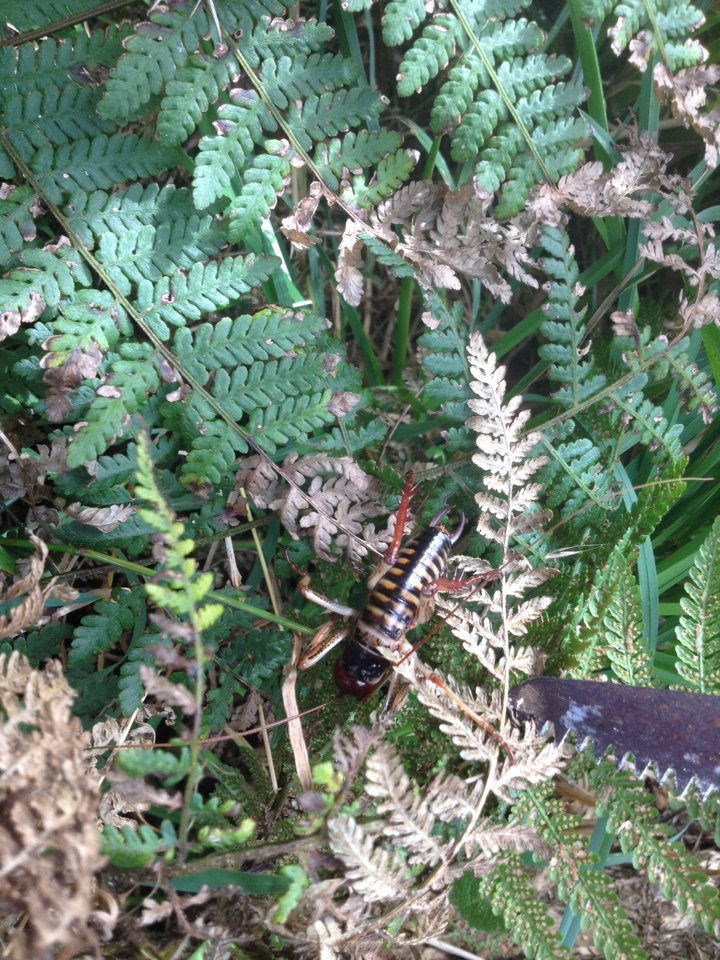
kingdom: Animalia
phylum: Arthropoda
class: Insecta
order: Orthoptera
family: Anostostomatidae
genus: Hemideina
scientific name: Hemideina crassidens
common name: Wellington tree weta
